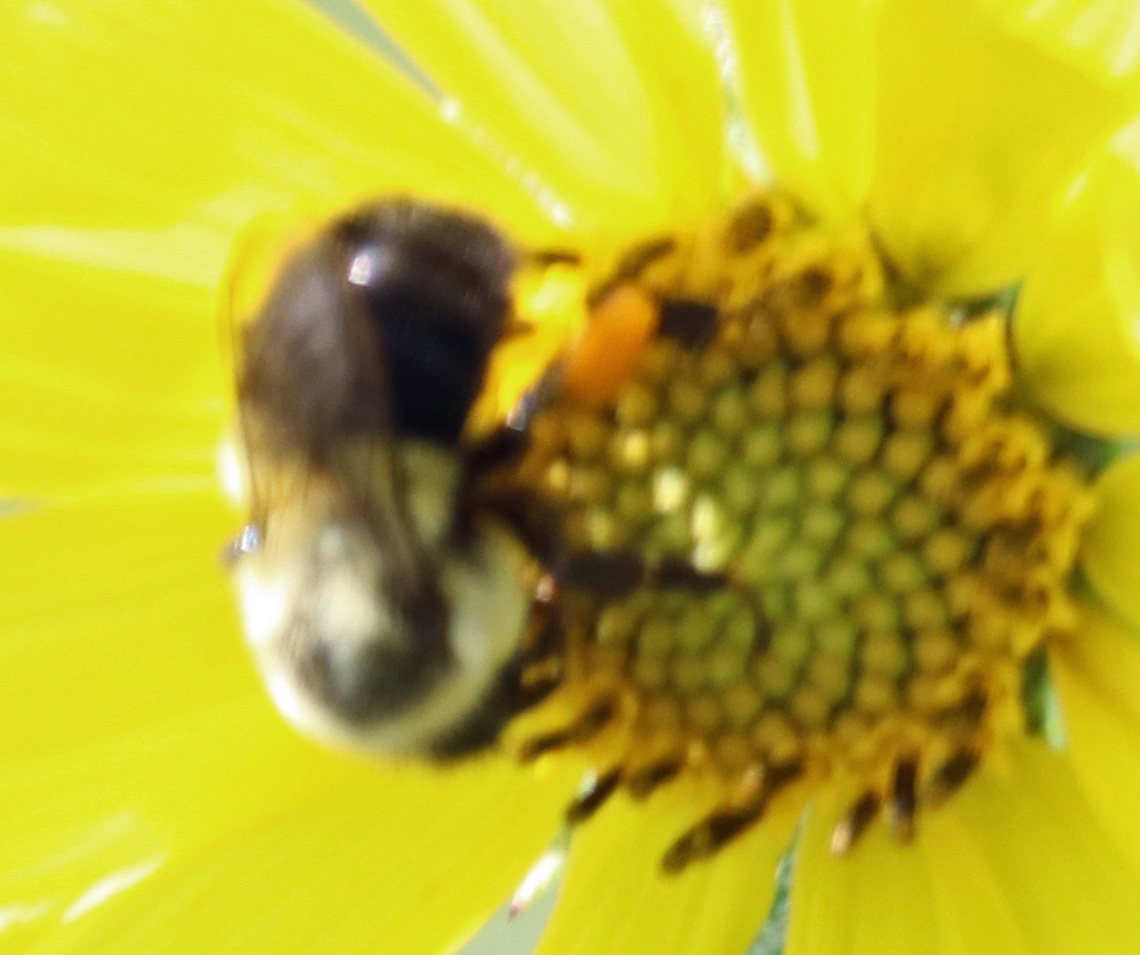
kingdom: Animalia
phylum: Arthropoda
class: Insecta
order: Hymenoptera
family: Apidae
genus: Bombus
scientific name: Bombus impatiens
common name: Common eastern bumble bee
